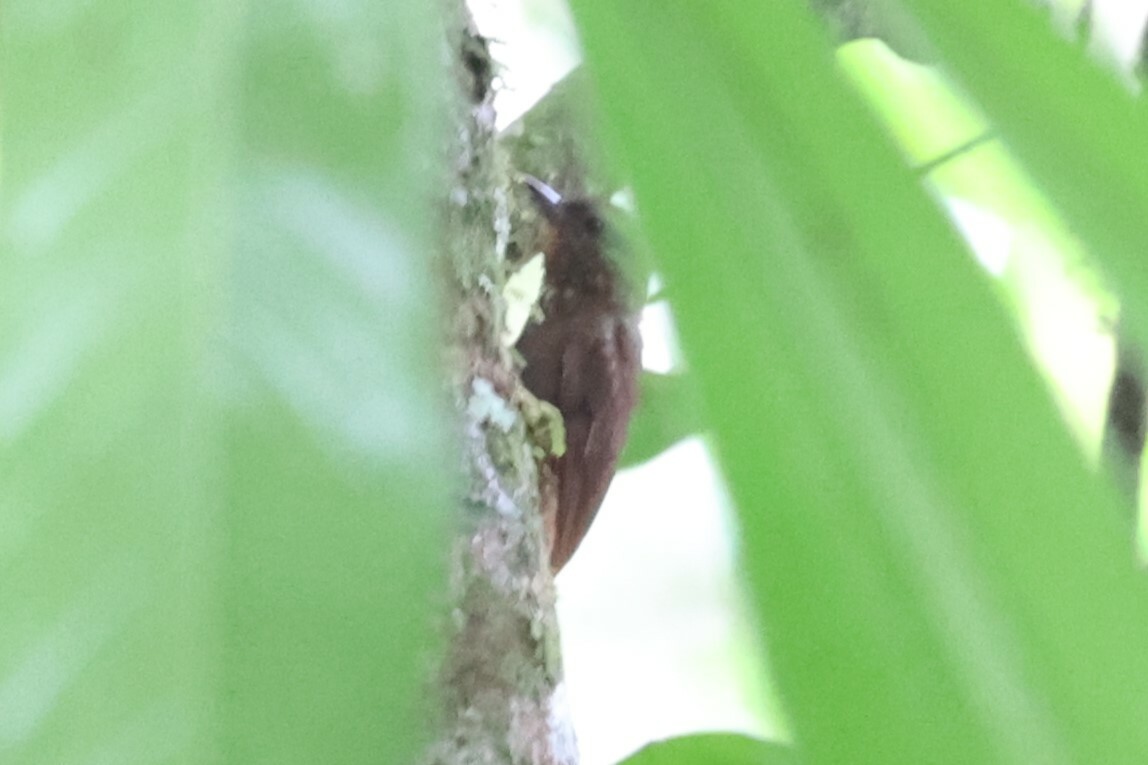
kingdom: Animalia
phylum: Chordata
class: Aves
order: Passeriformes
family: Furnariidae
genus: Glyphorynchus
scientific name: Glyphorynchus spirurus
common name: Wedge-billed woodcreeper
